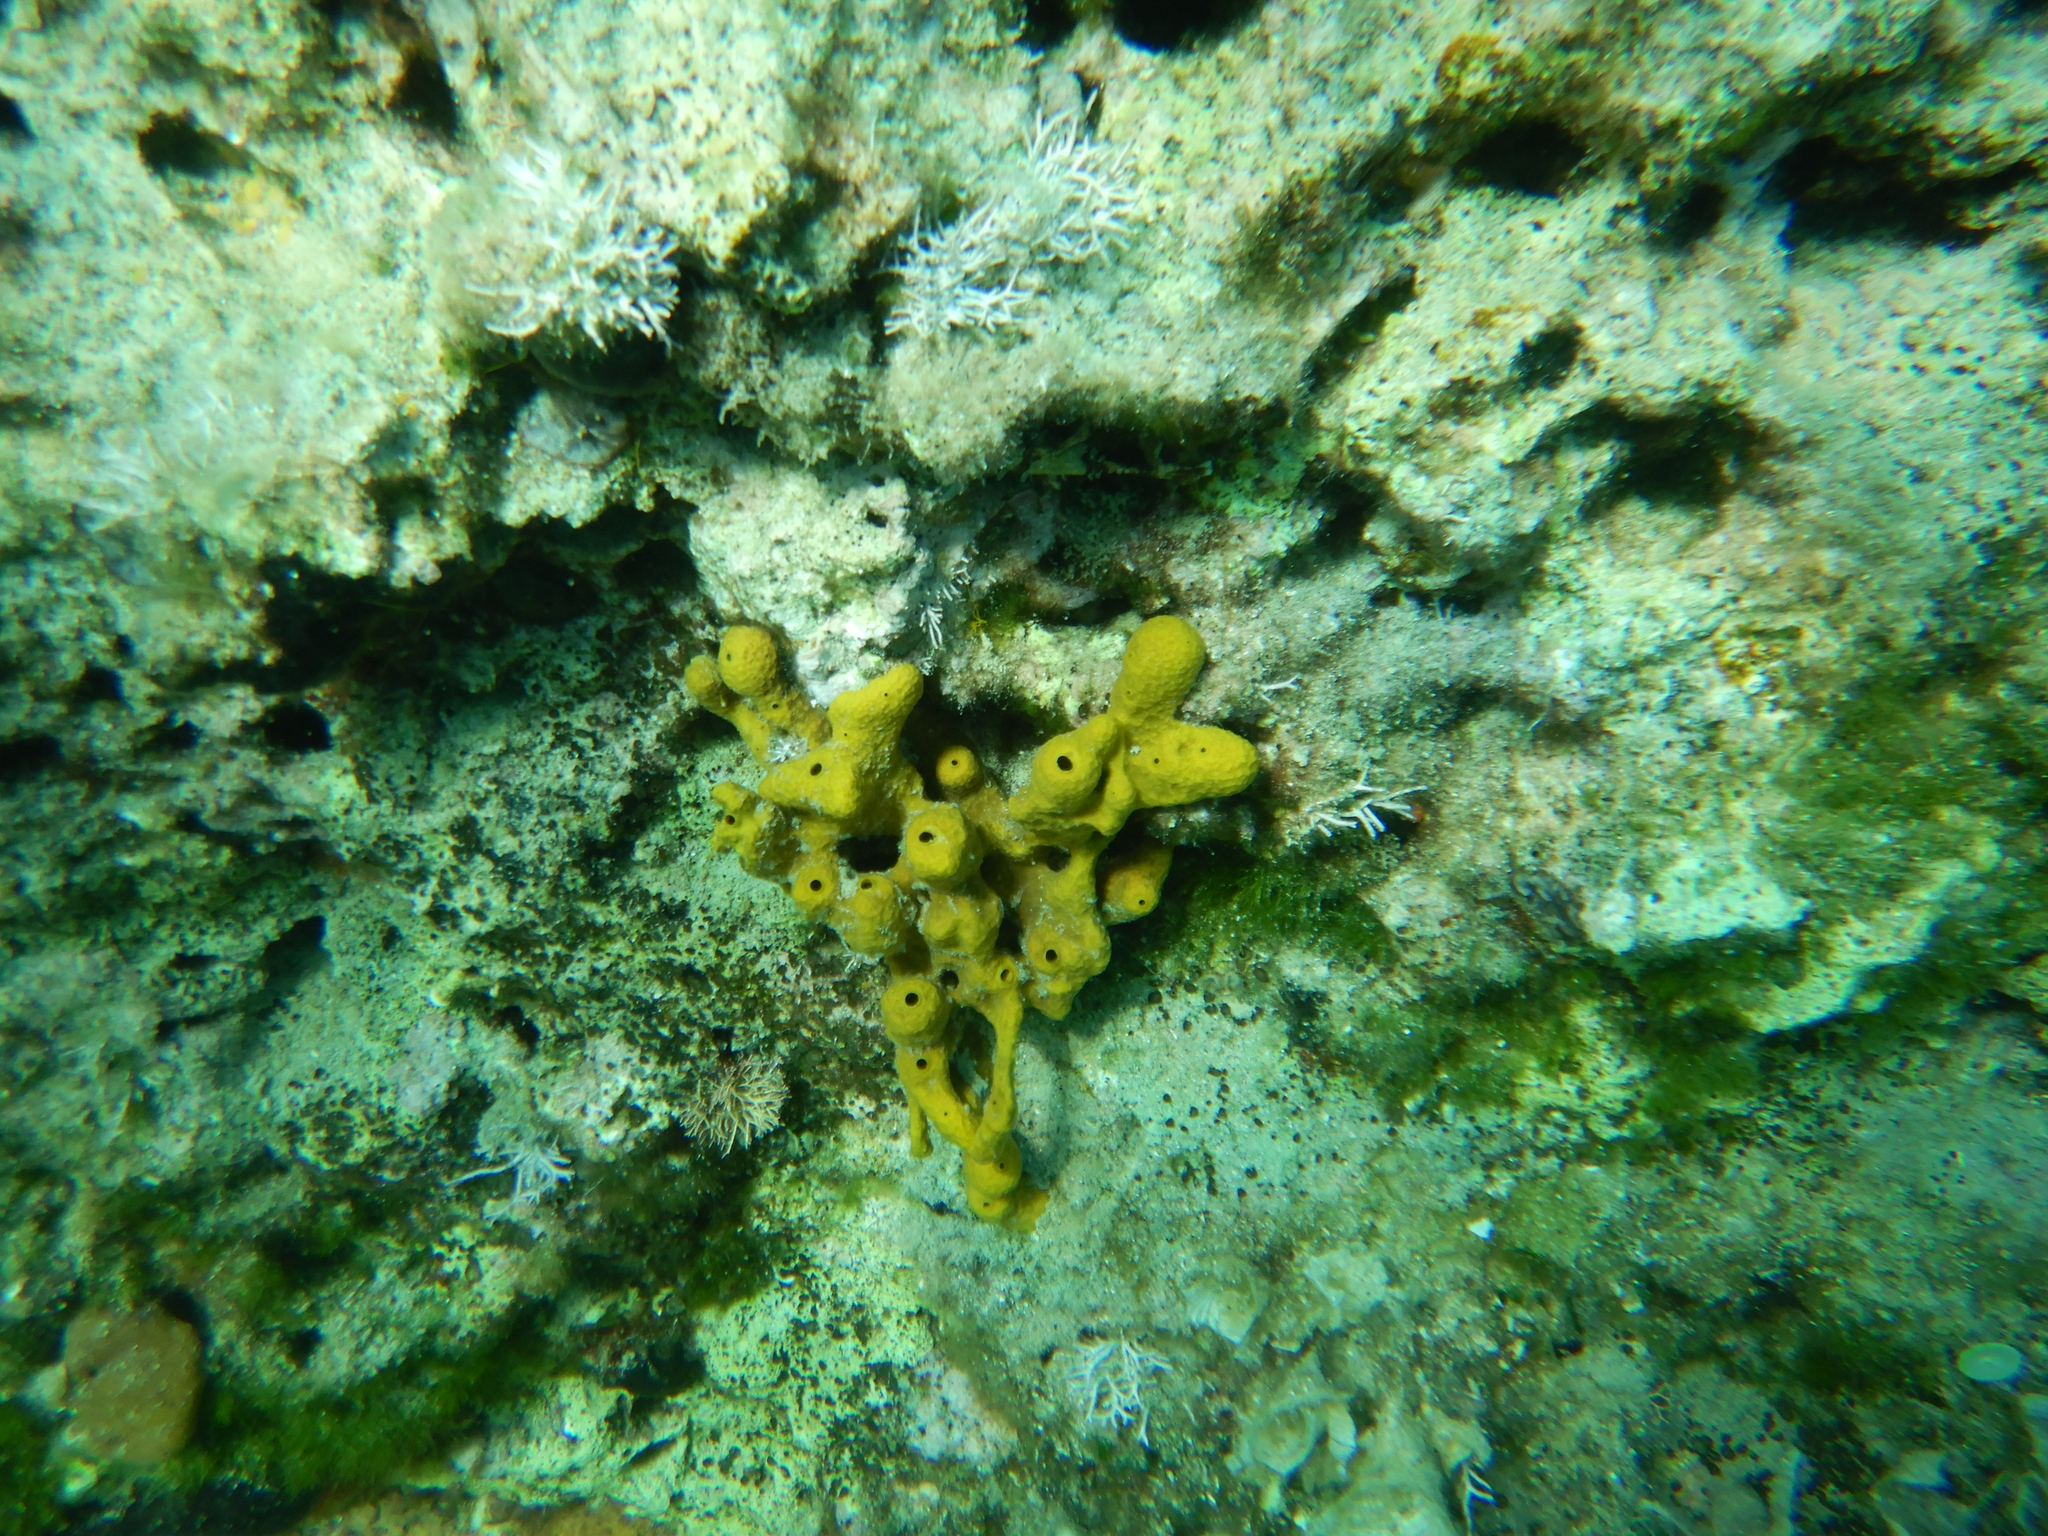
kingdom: Animalia
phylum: Porifera
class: Demospongiae
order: Verongiida
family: Aplysinidae
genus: Aplysina
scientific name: Aplysina aerophoba
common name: Aureate sponge
